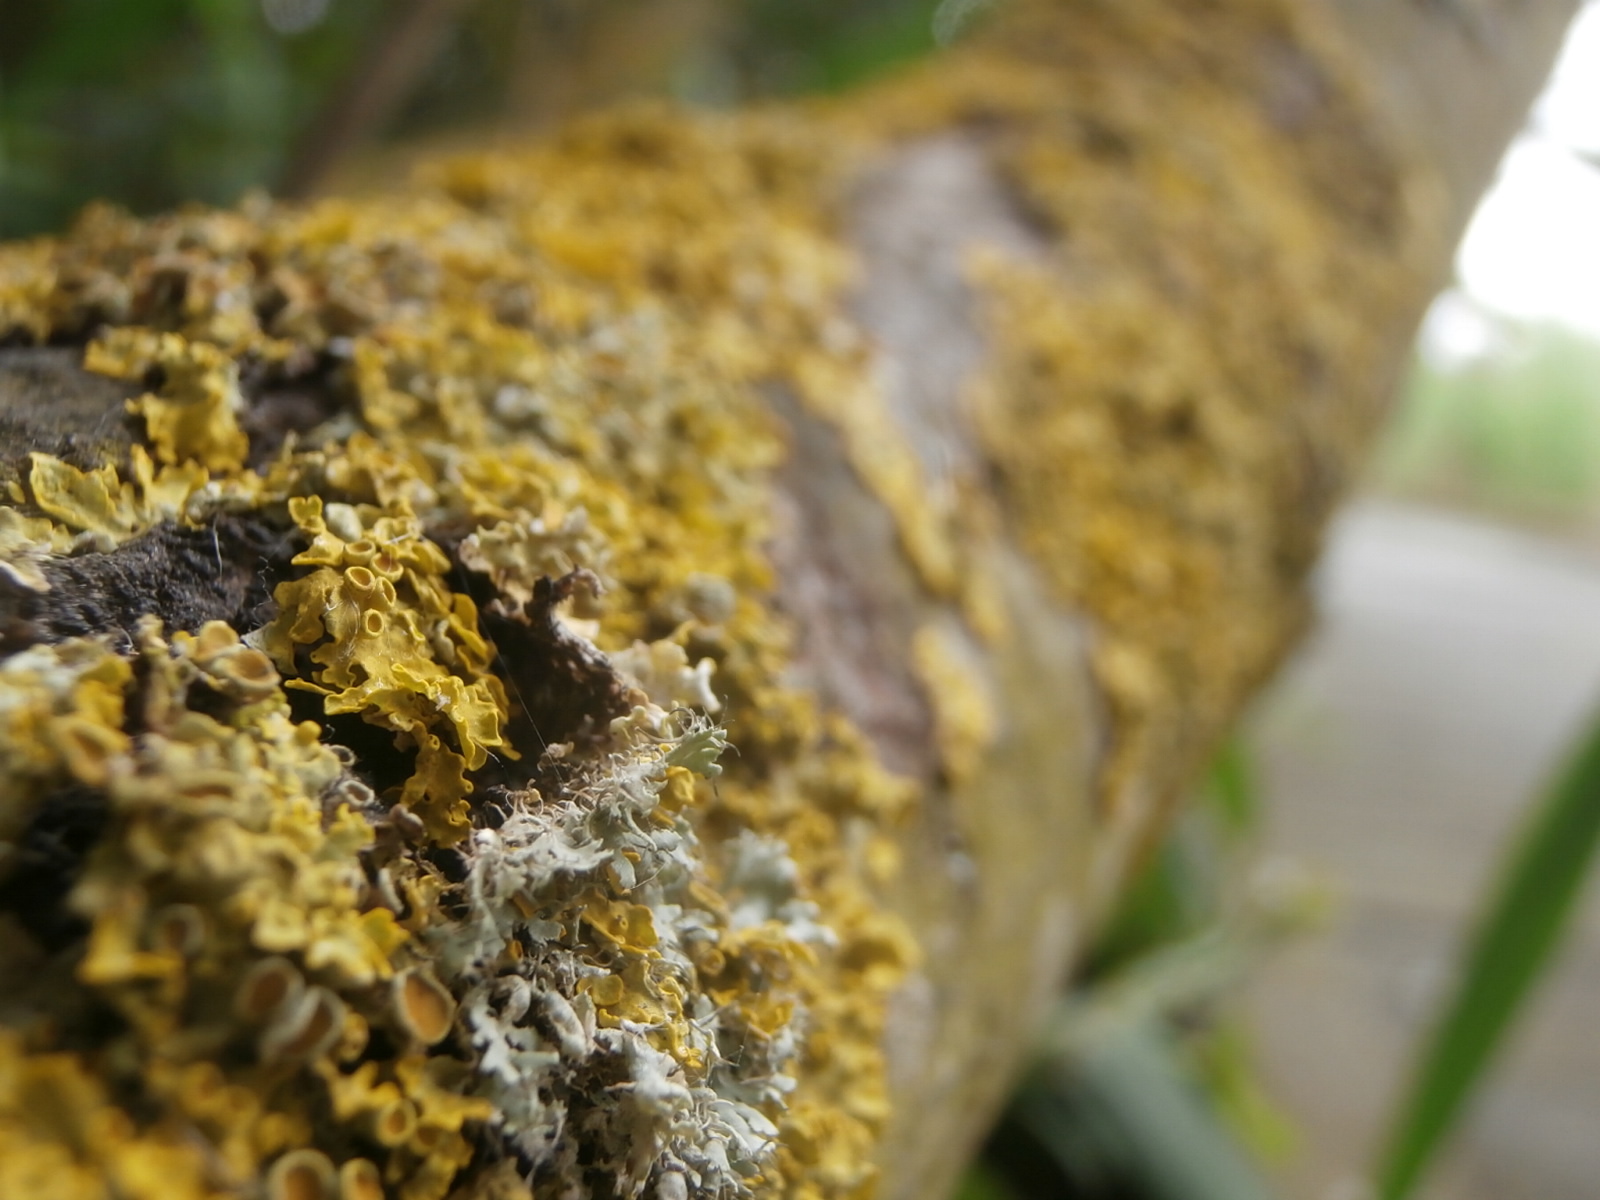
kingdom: Fungi
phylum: Ascomycota
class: Lecanoromycetes
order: Teloschistales
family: Teloschistaceae
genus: Xanthoria
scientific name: Xanthoria parietina
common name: Common orange lichen
